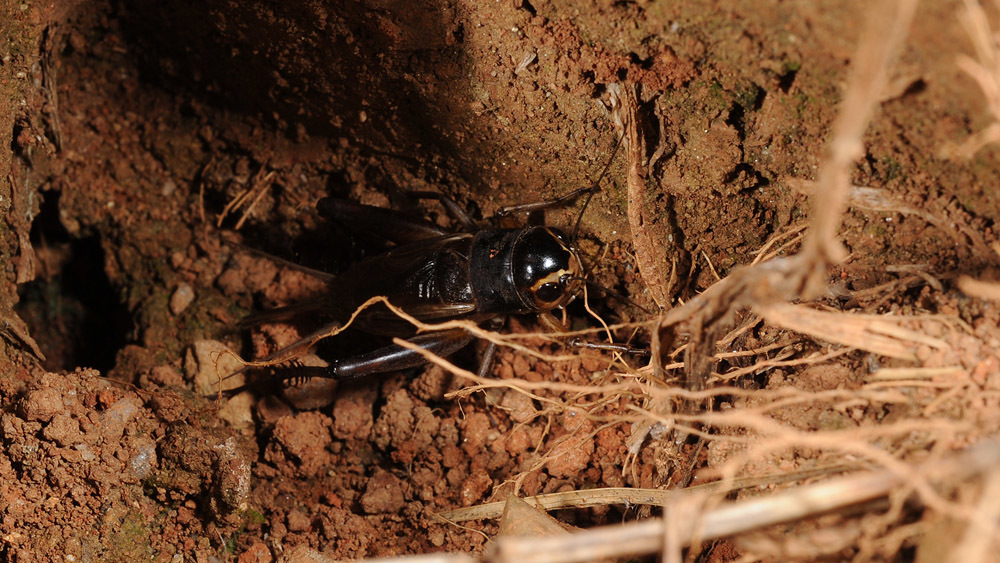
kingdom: Animalia
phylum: Arthropoda
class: Insecta
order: Orthoptera
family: Gryllidae
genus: Teleogryllus
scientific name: Teleogryllus emma
